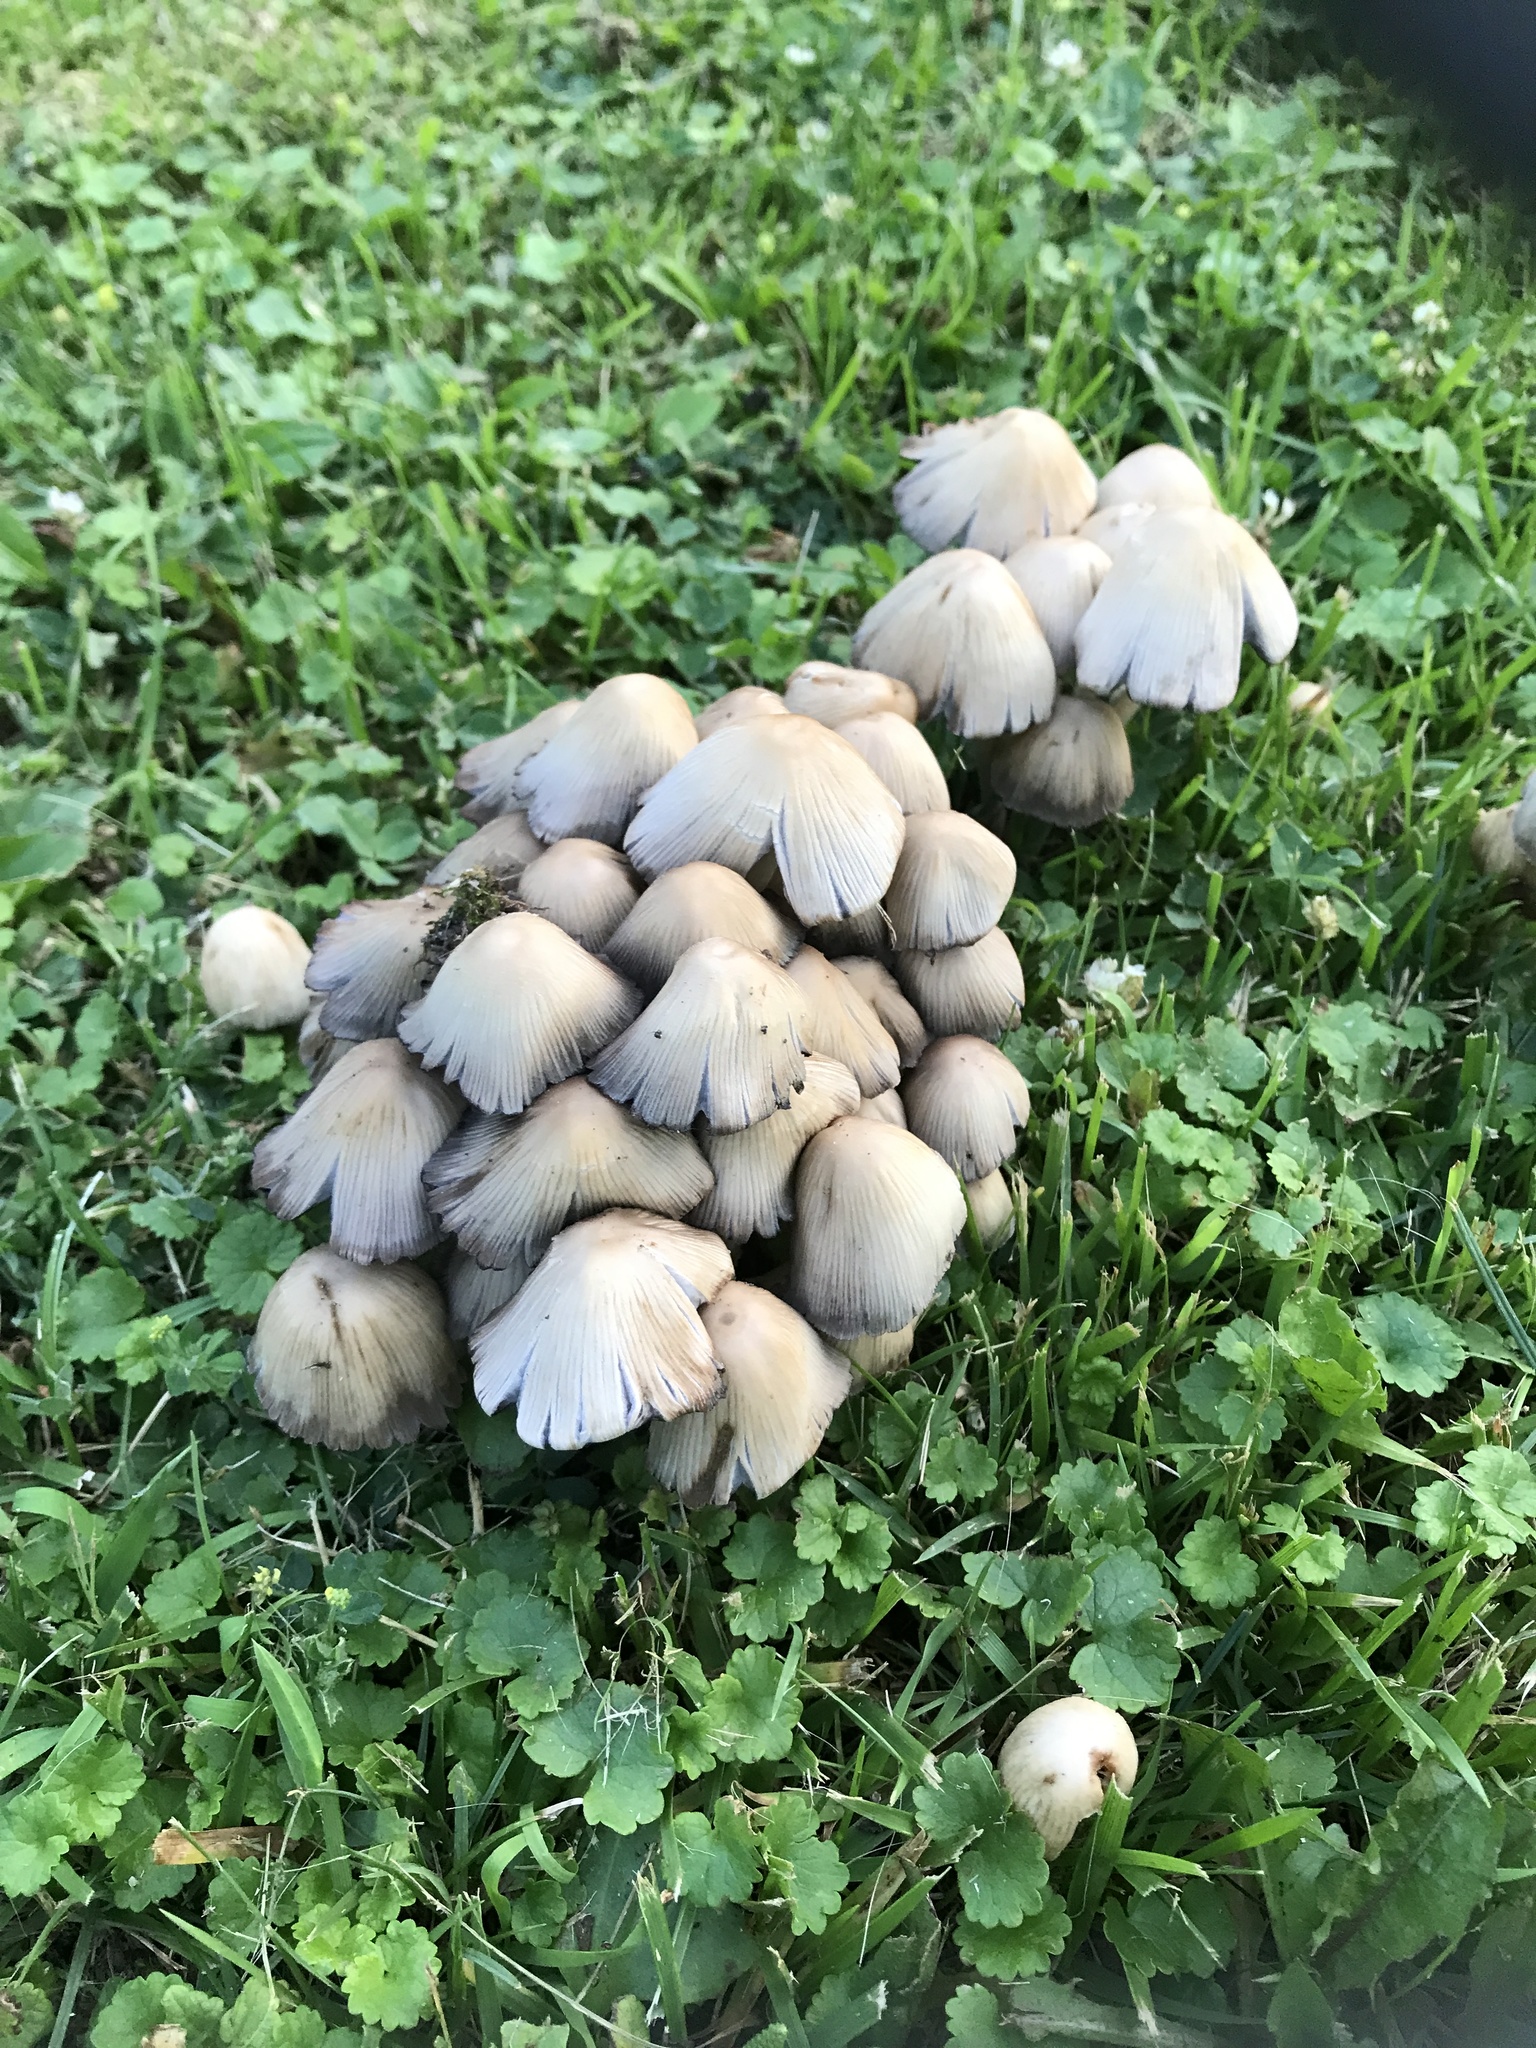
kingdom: Fungi
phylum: Basidiomycota
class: Agaricomycetes
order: Agaricales
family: Psathyrellaceae
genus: Coprinellus
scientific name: Coprinellus micaceus
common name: Glistening ink-cap
